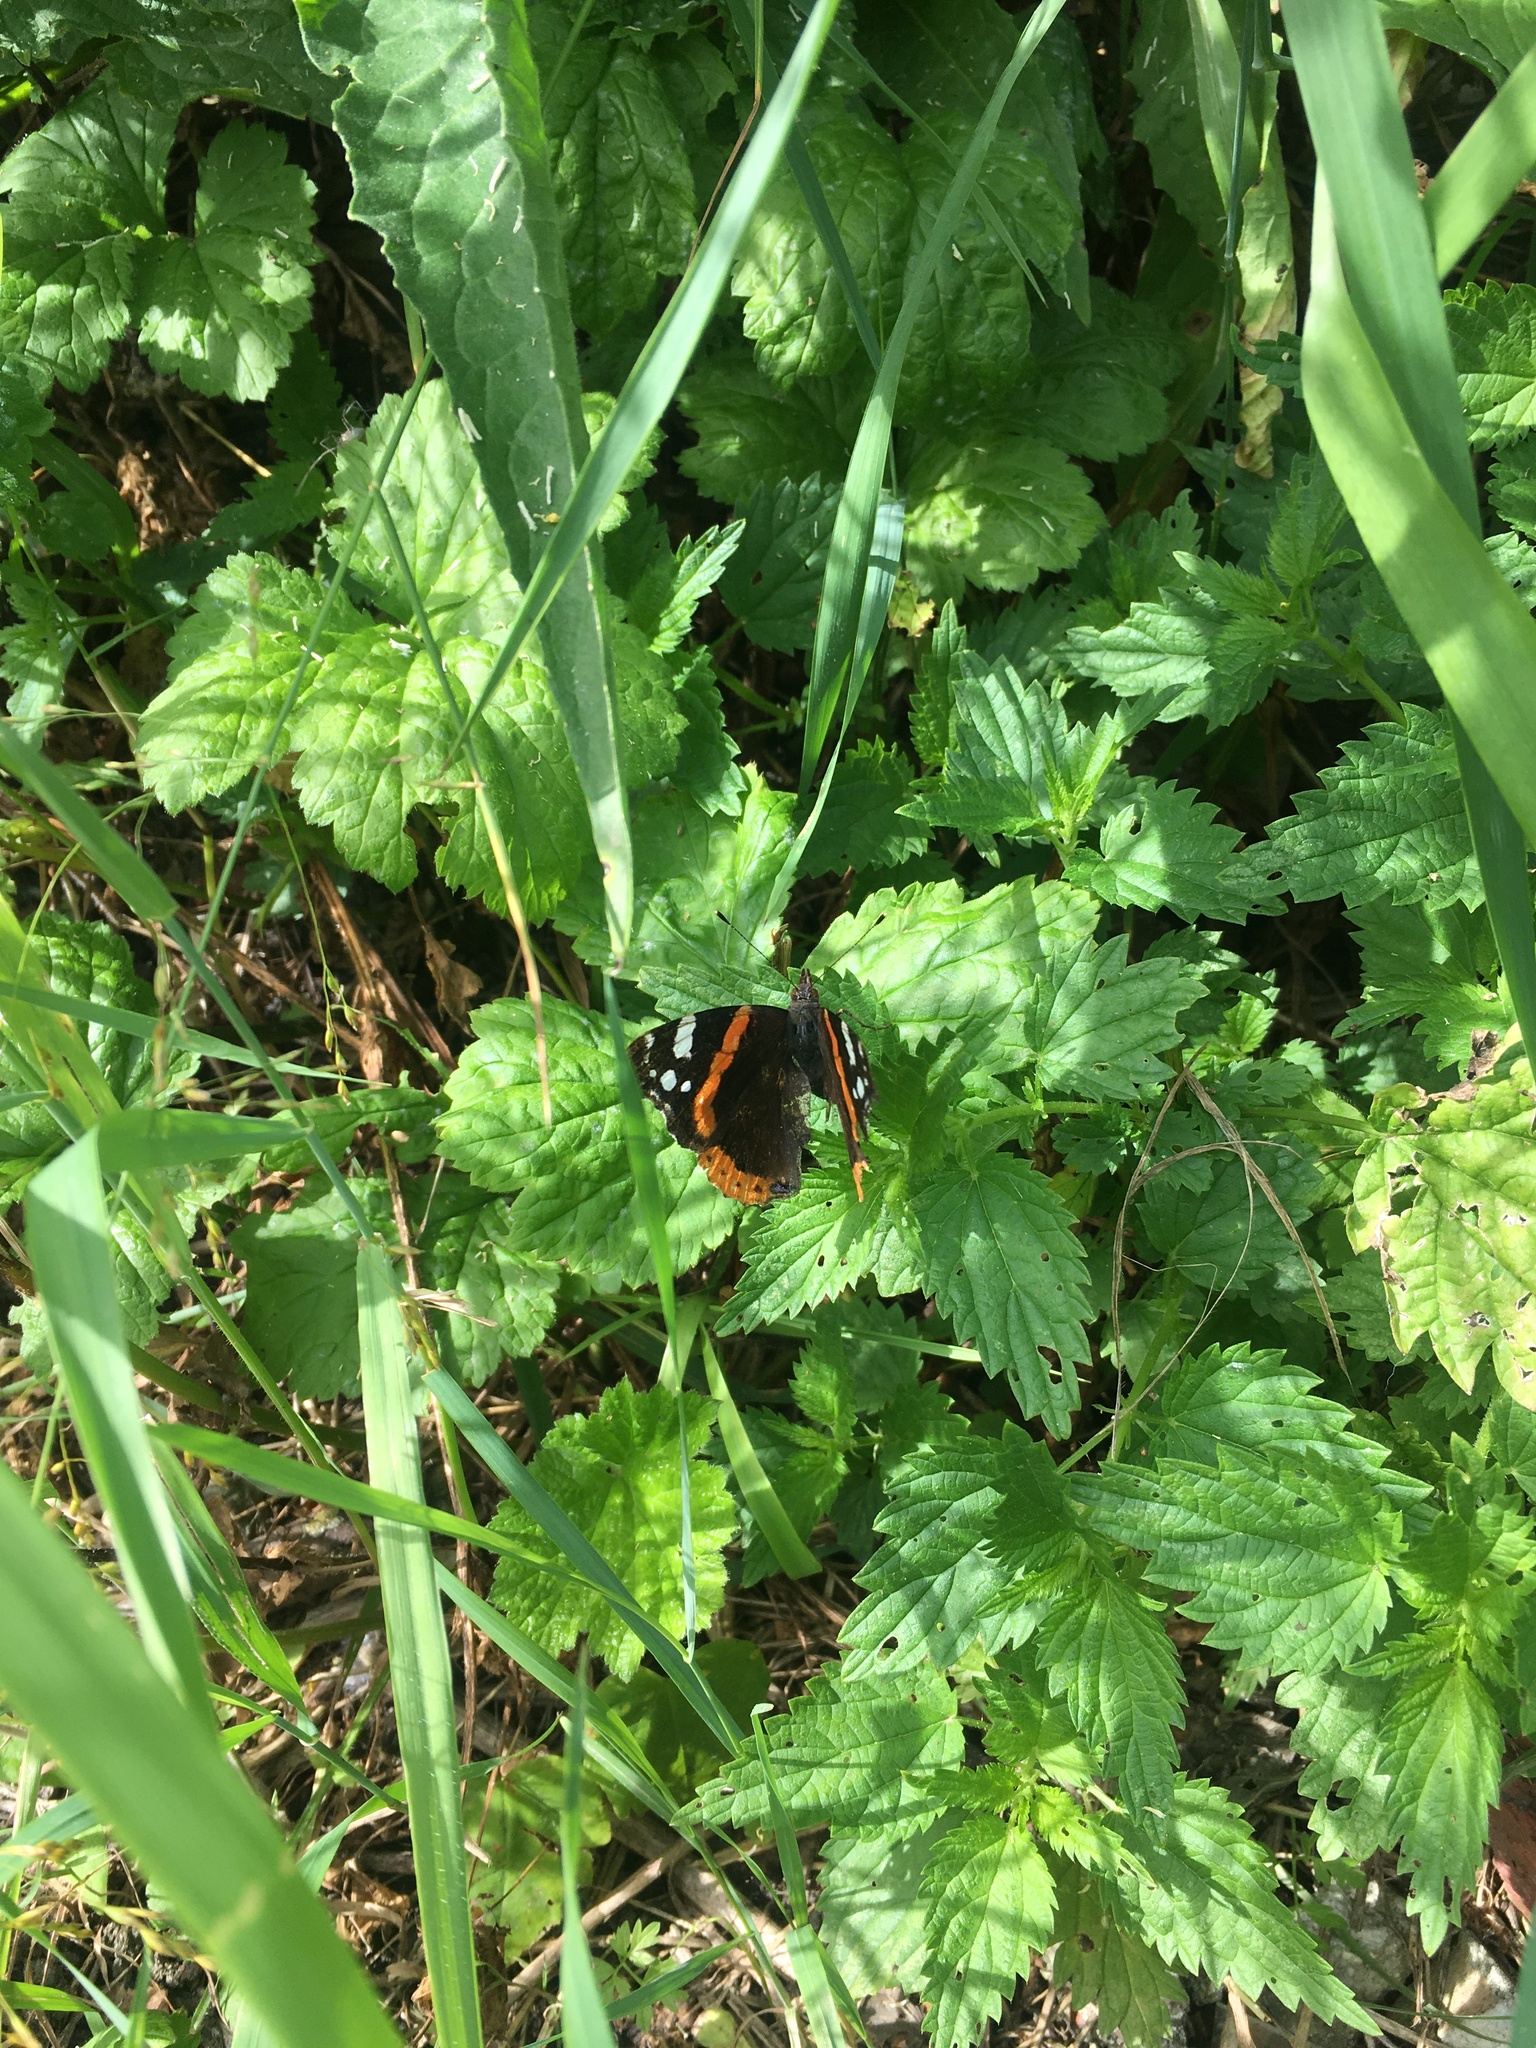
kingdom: Animalia
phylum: Arthropoda
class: Insecta
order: Lepidoptera
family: Nymphalidae
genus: Vanessa
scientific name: Vanessa atalanta
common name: Red admiral
